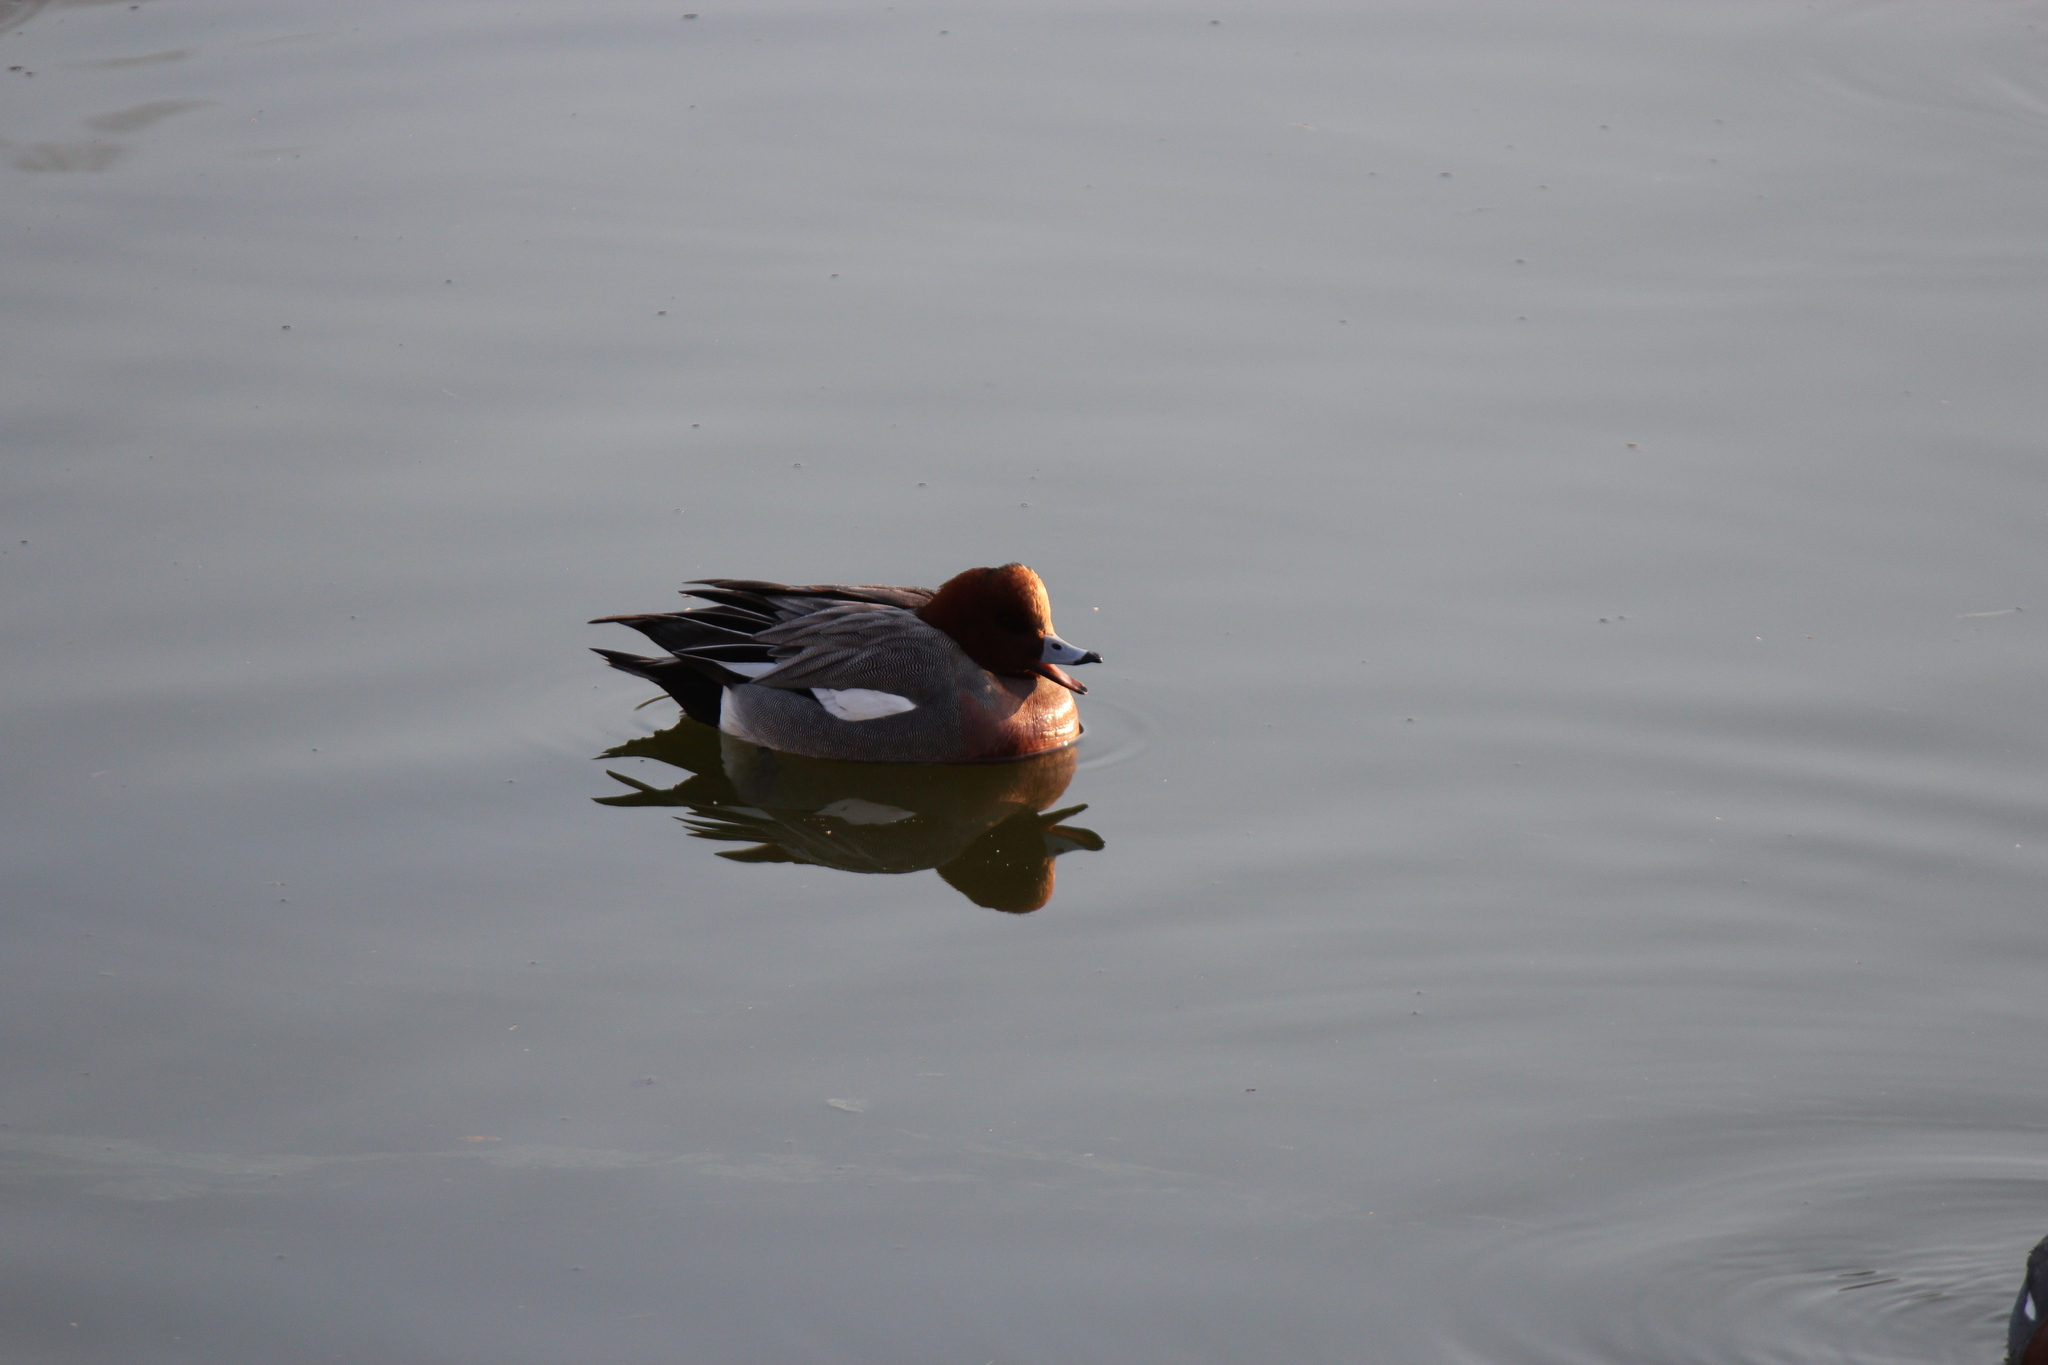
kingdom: Animalia
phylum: Chordata
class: Aves
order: Anseriformes
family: Anatidae
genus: Mareca
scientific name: Mareca penelope
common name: Eurasian wigeon
